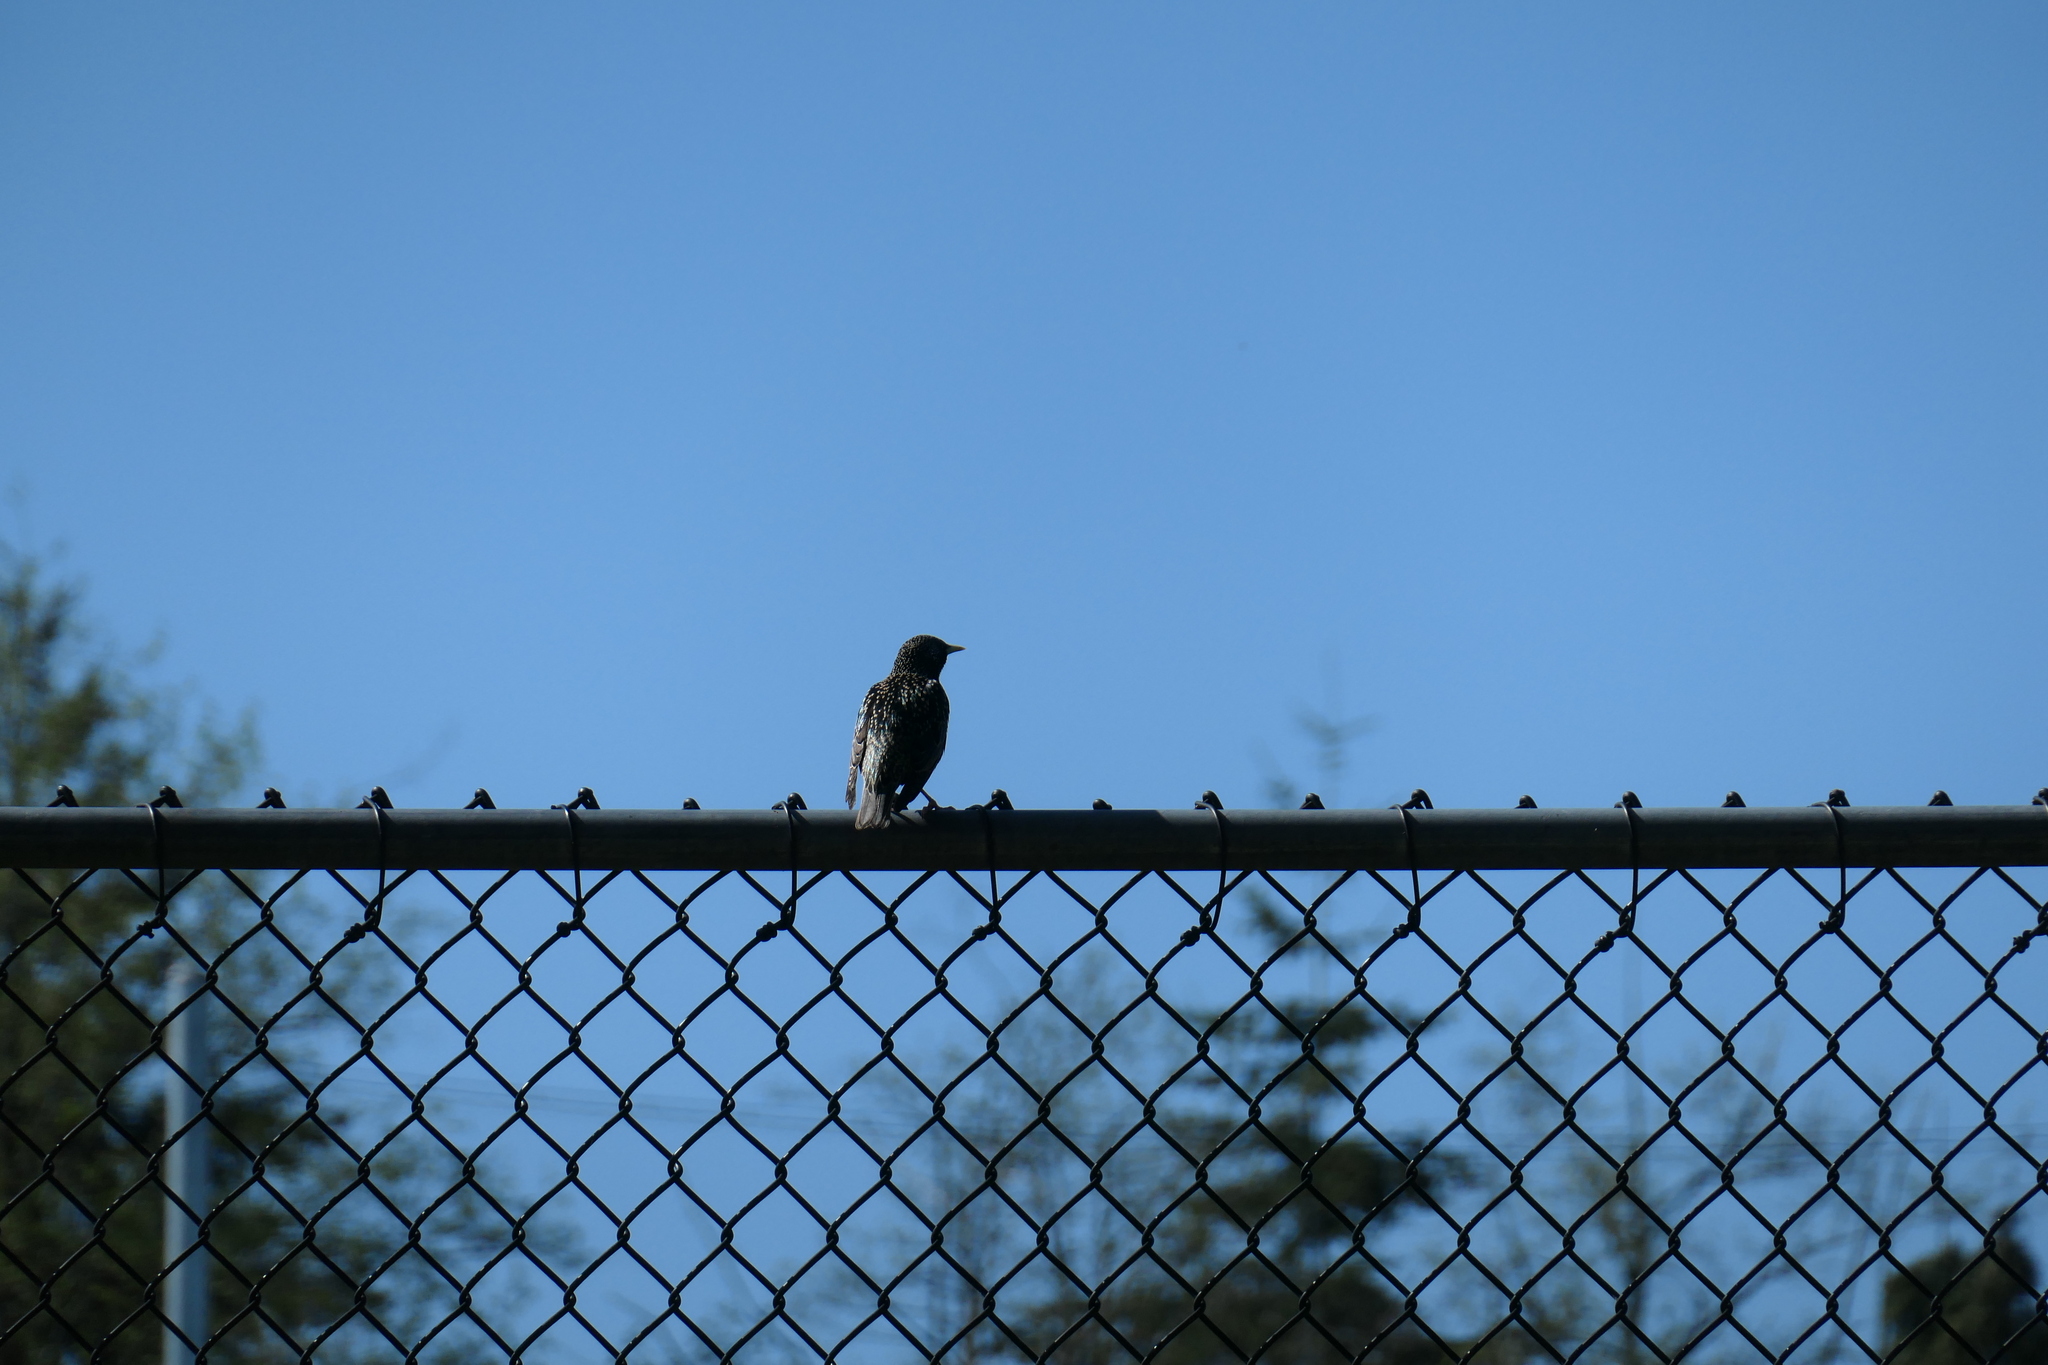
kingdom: Animalia
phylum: Chordata
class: Aves
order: Passeriformes
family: Sturnidae
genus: Sturnus
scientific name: Sturnus vulgaris
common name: Common starling
